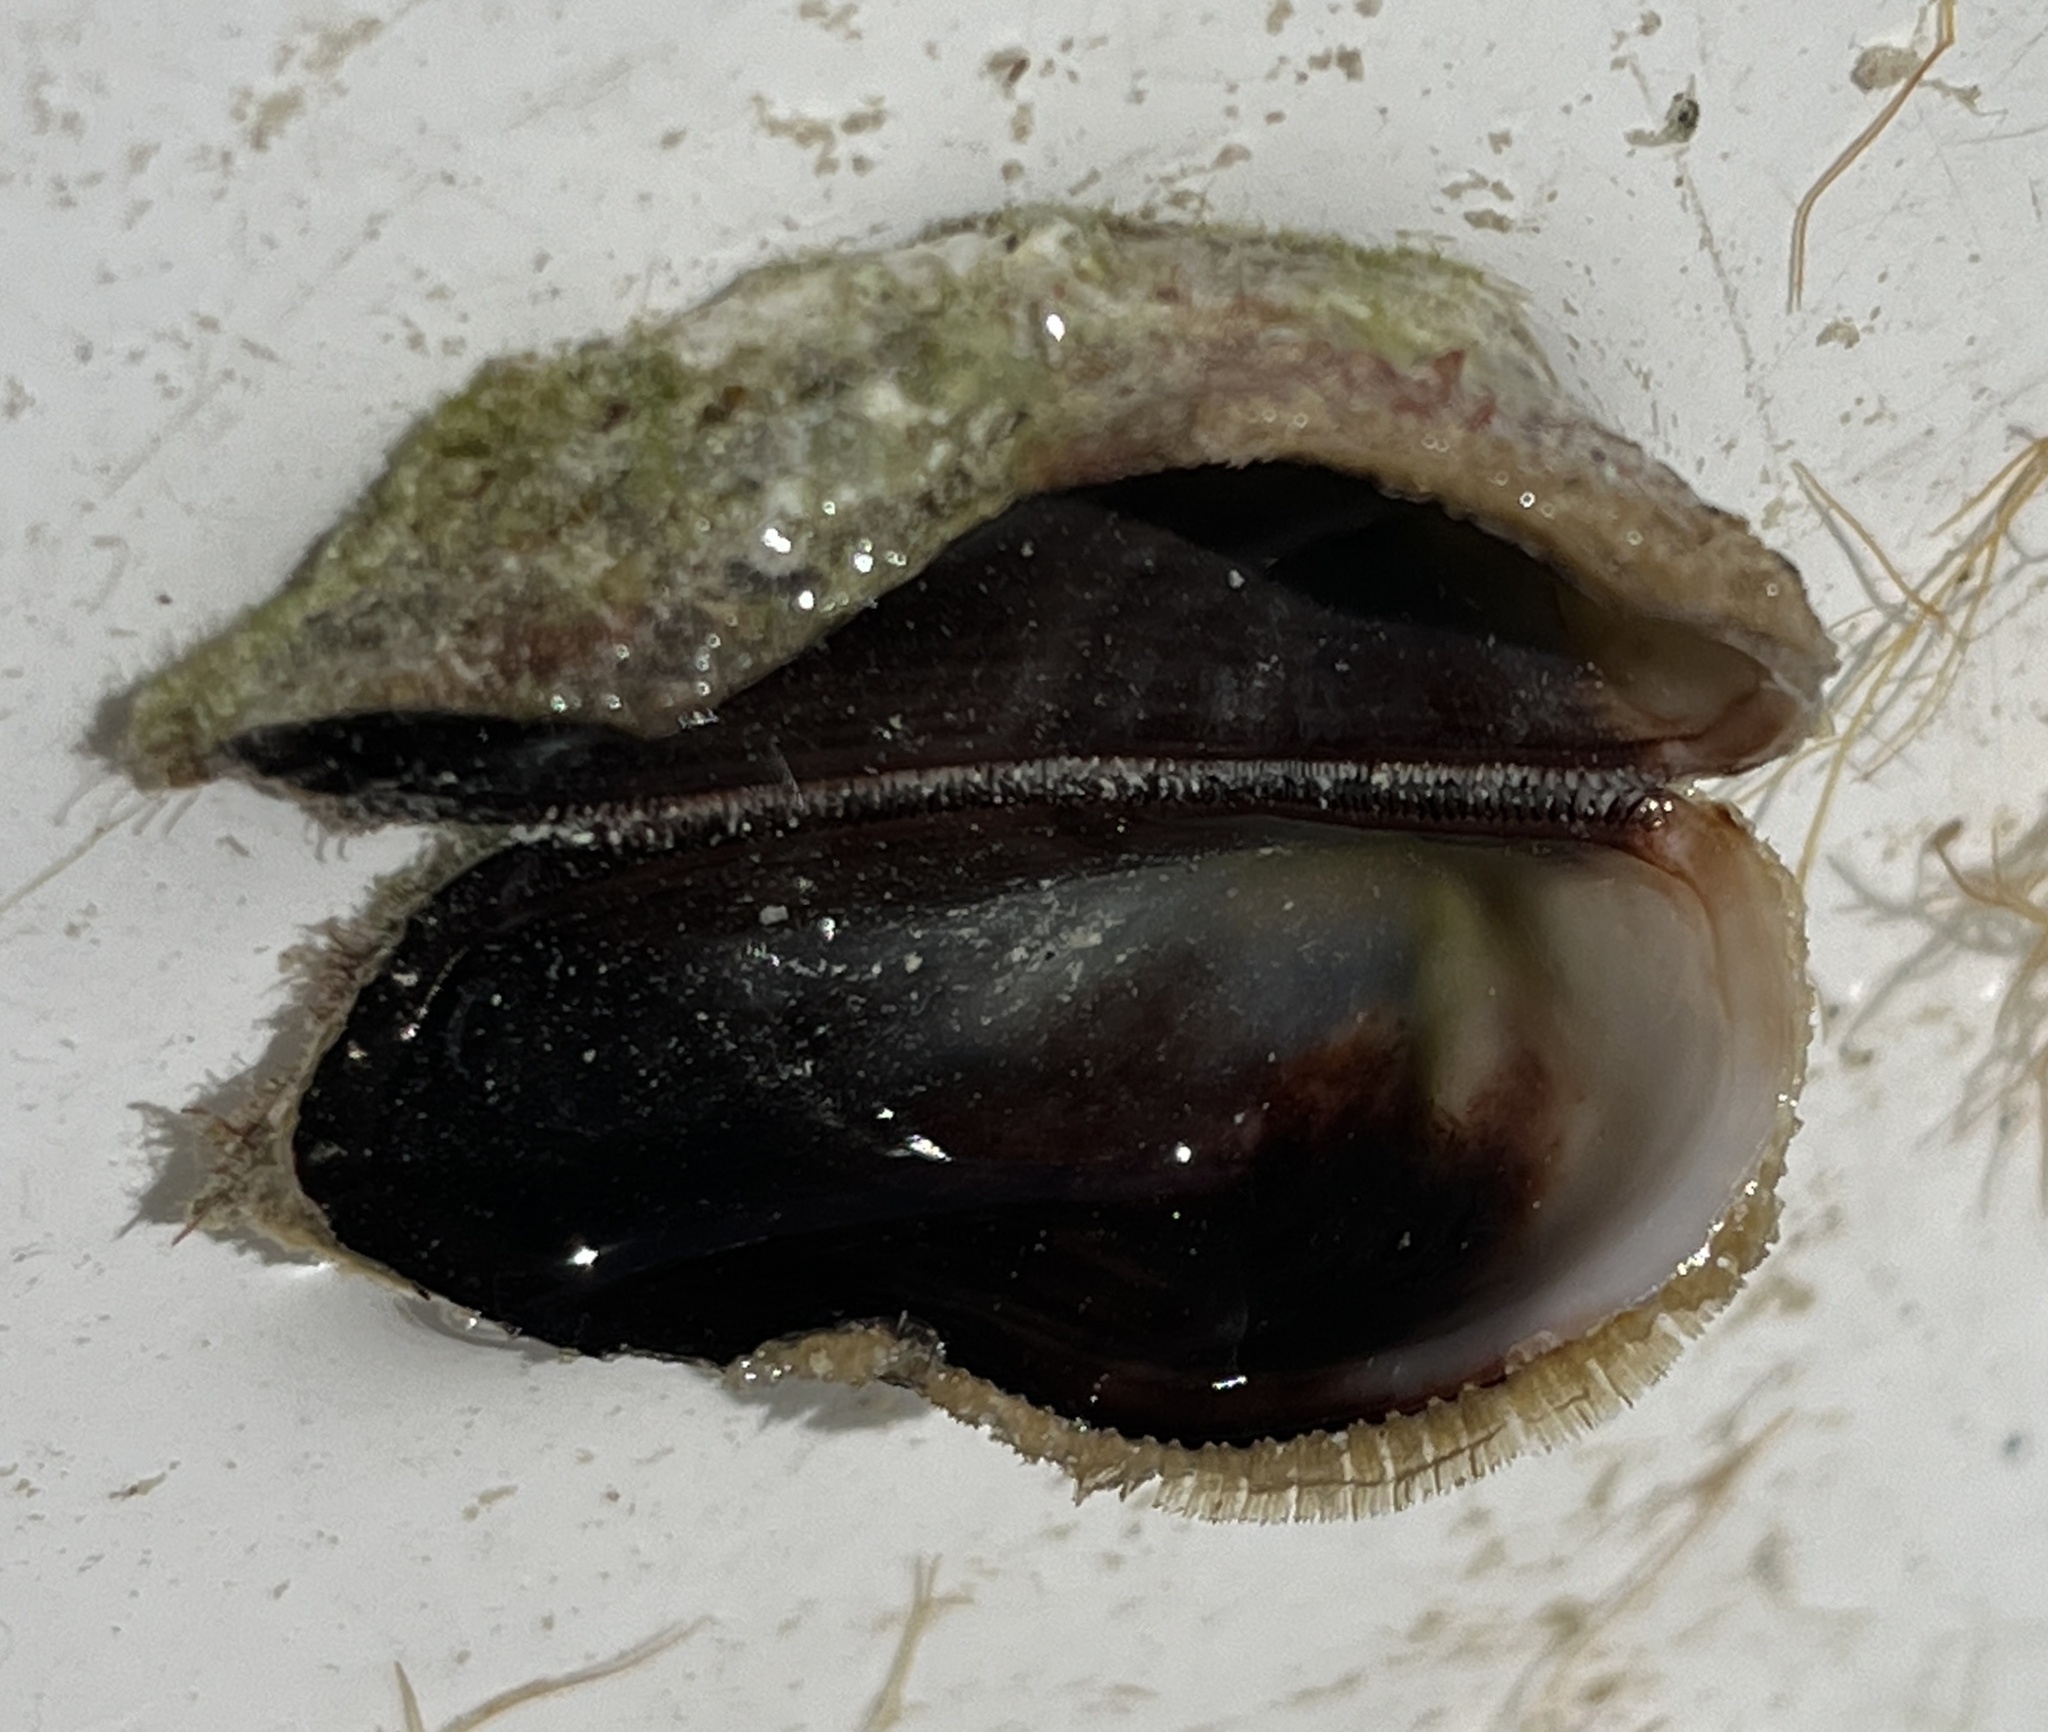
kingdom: Animalia
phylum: Mollusca
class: Bivalvia
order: Arcida
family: Arcidae
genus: Lamarcka
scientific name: Lamarcka imbricata
